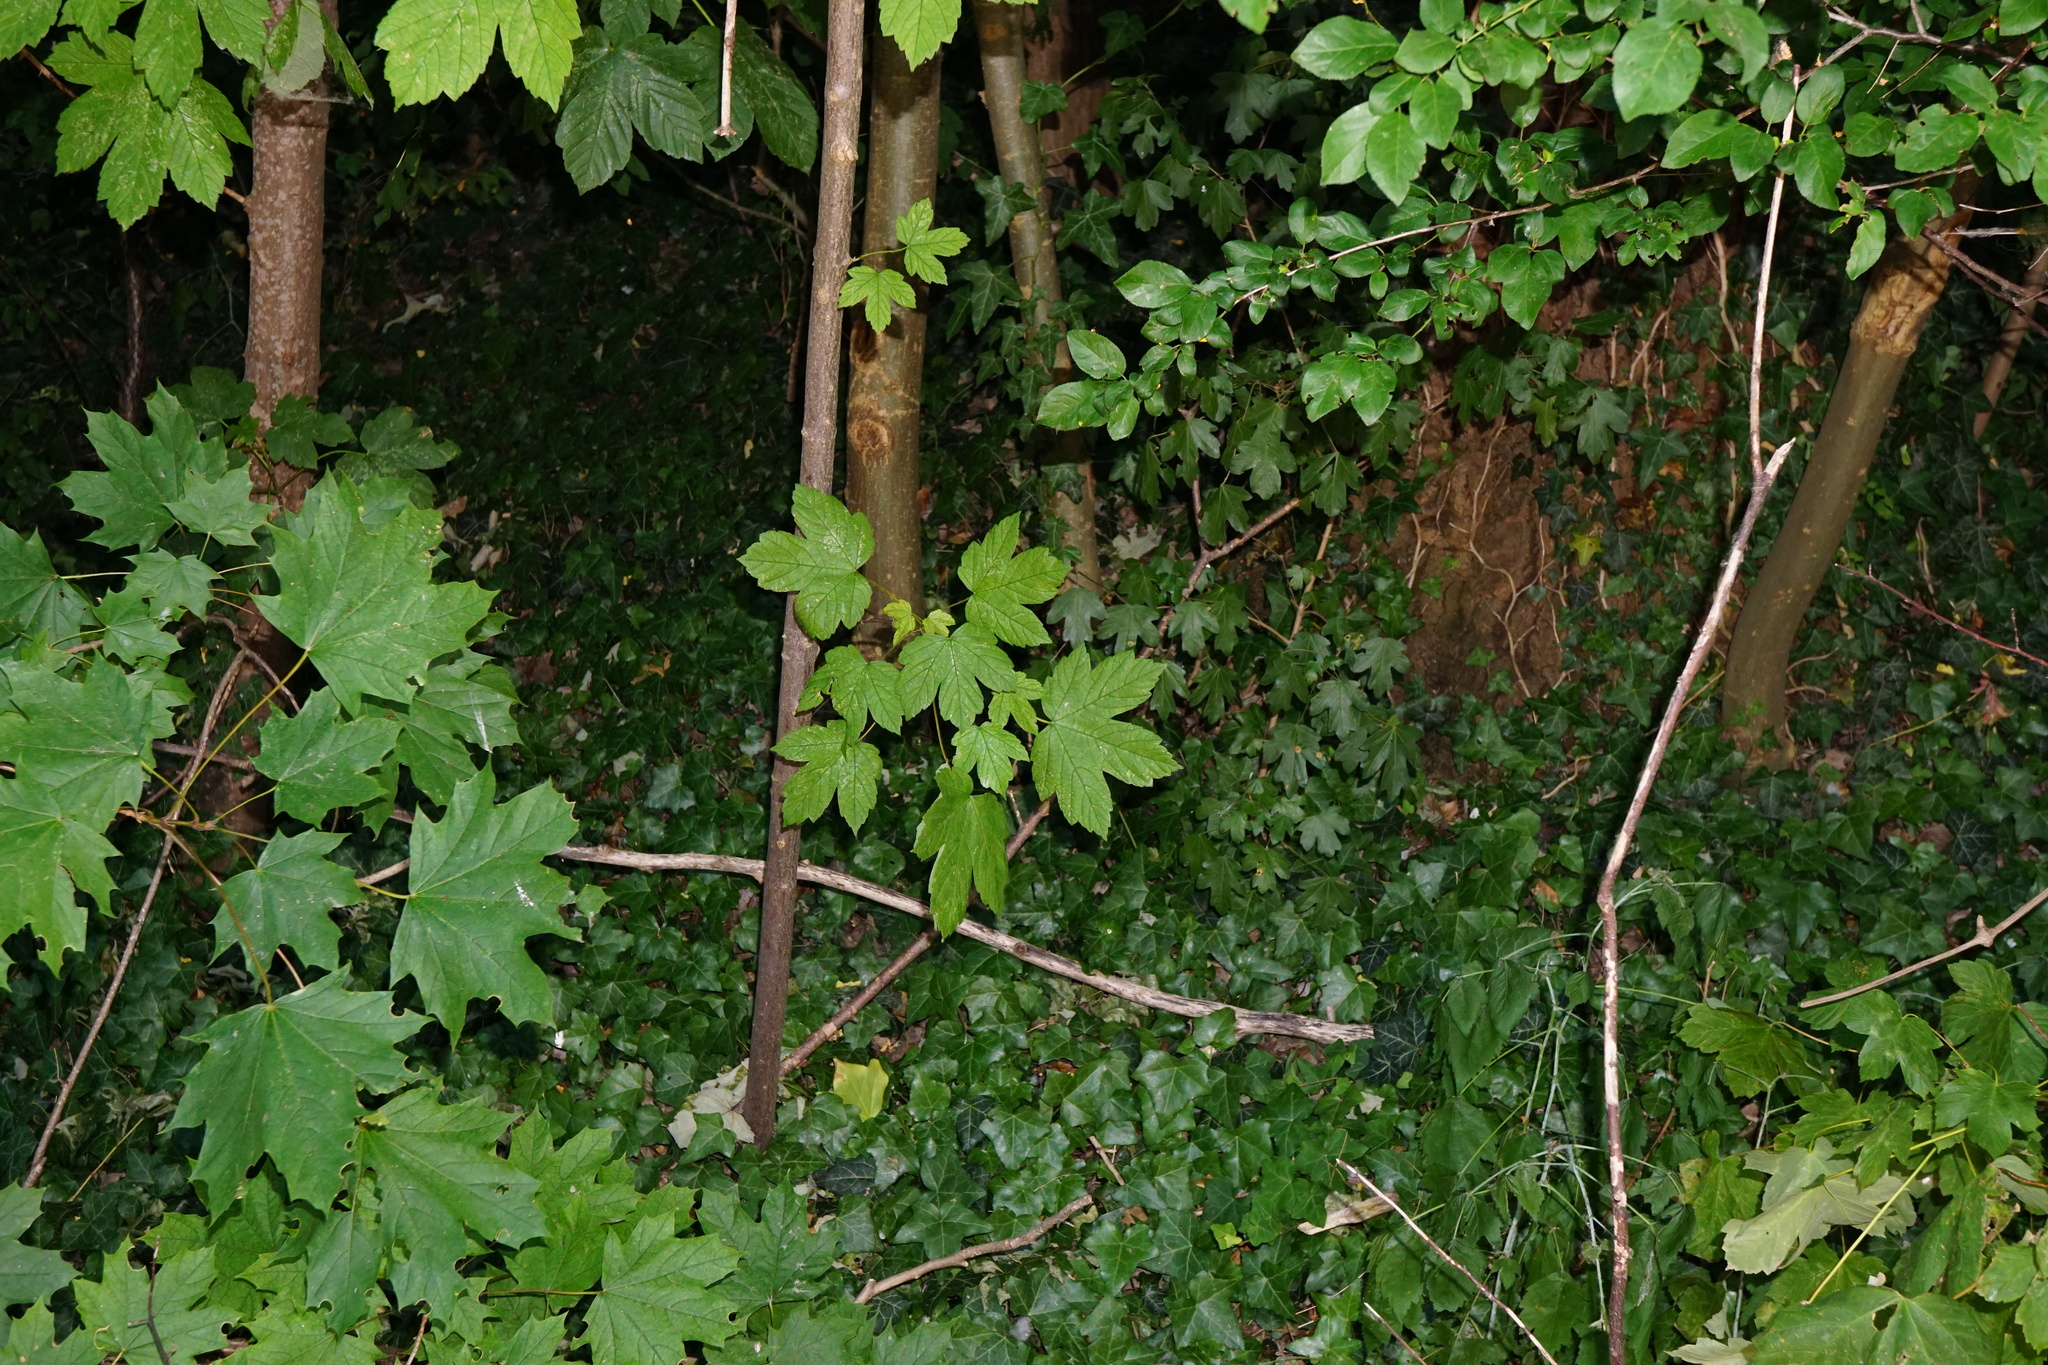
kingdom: Plantae
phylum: Tracheophyta
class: Magnoliopsida
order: Sapindales
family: Sapindaceae
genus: Acer
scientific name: Acer pseudoplatanus
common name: Sycamore
